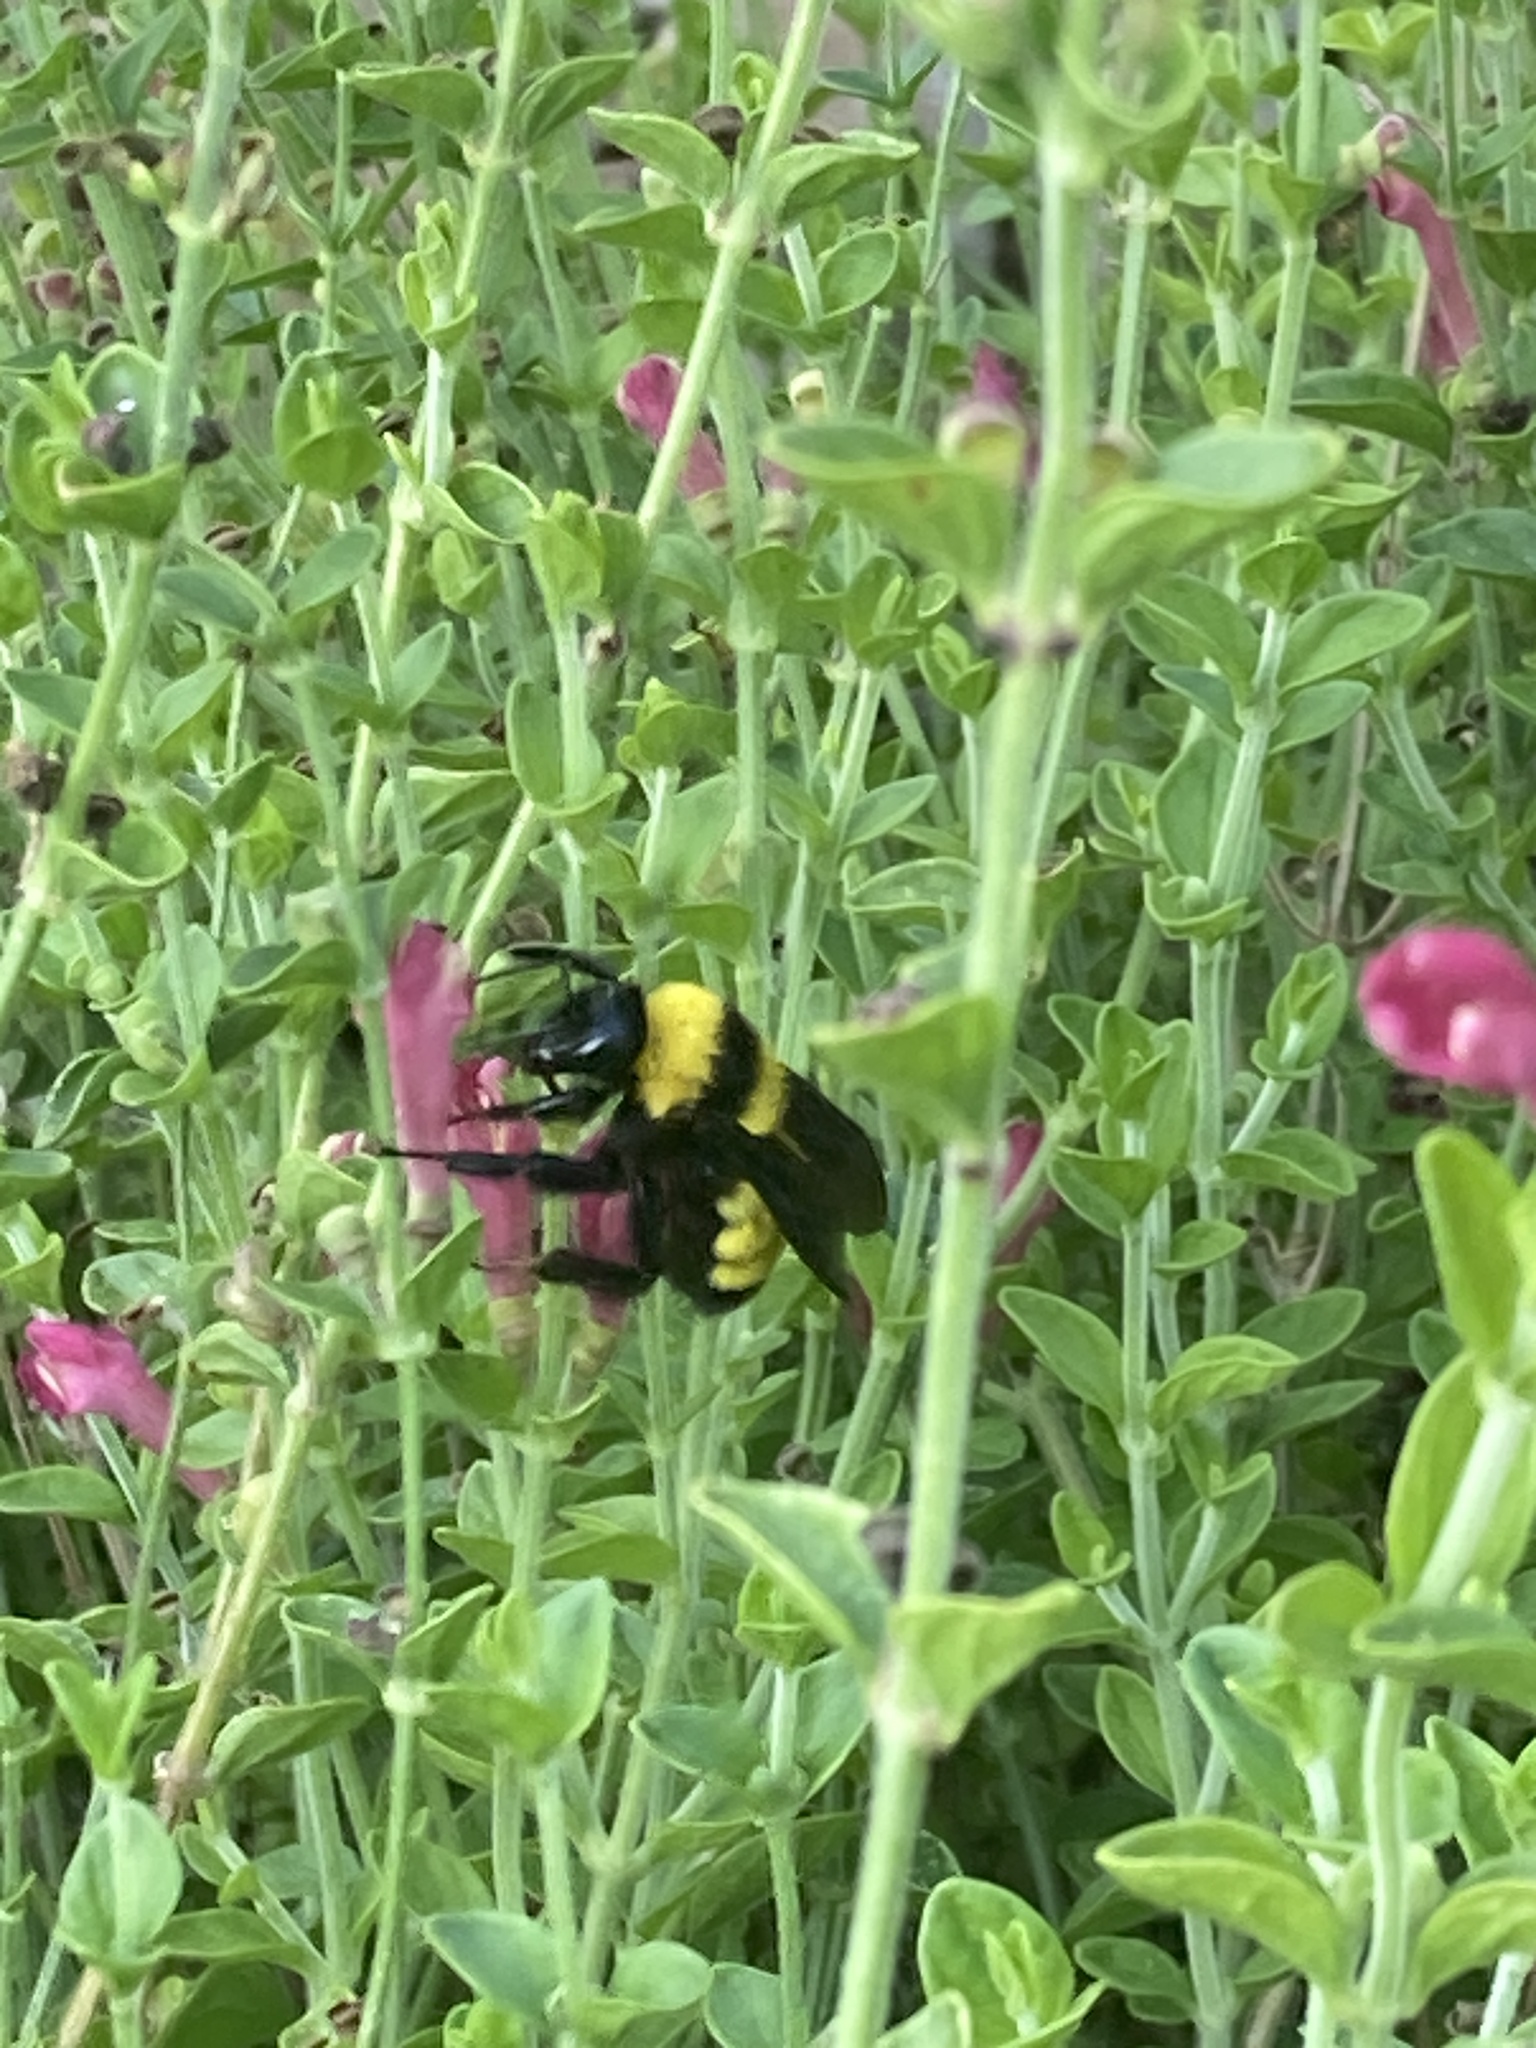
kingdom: Animalia
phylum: Arthropoda
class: Insecta
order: Hymenoptera
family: Apidae
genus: Bombus
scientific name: Bombus sonorus
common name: Sonoran bumble bee
